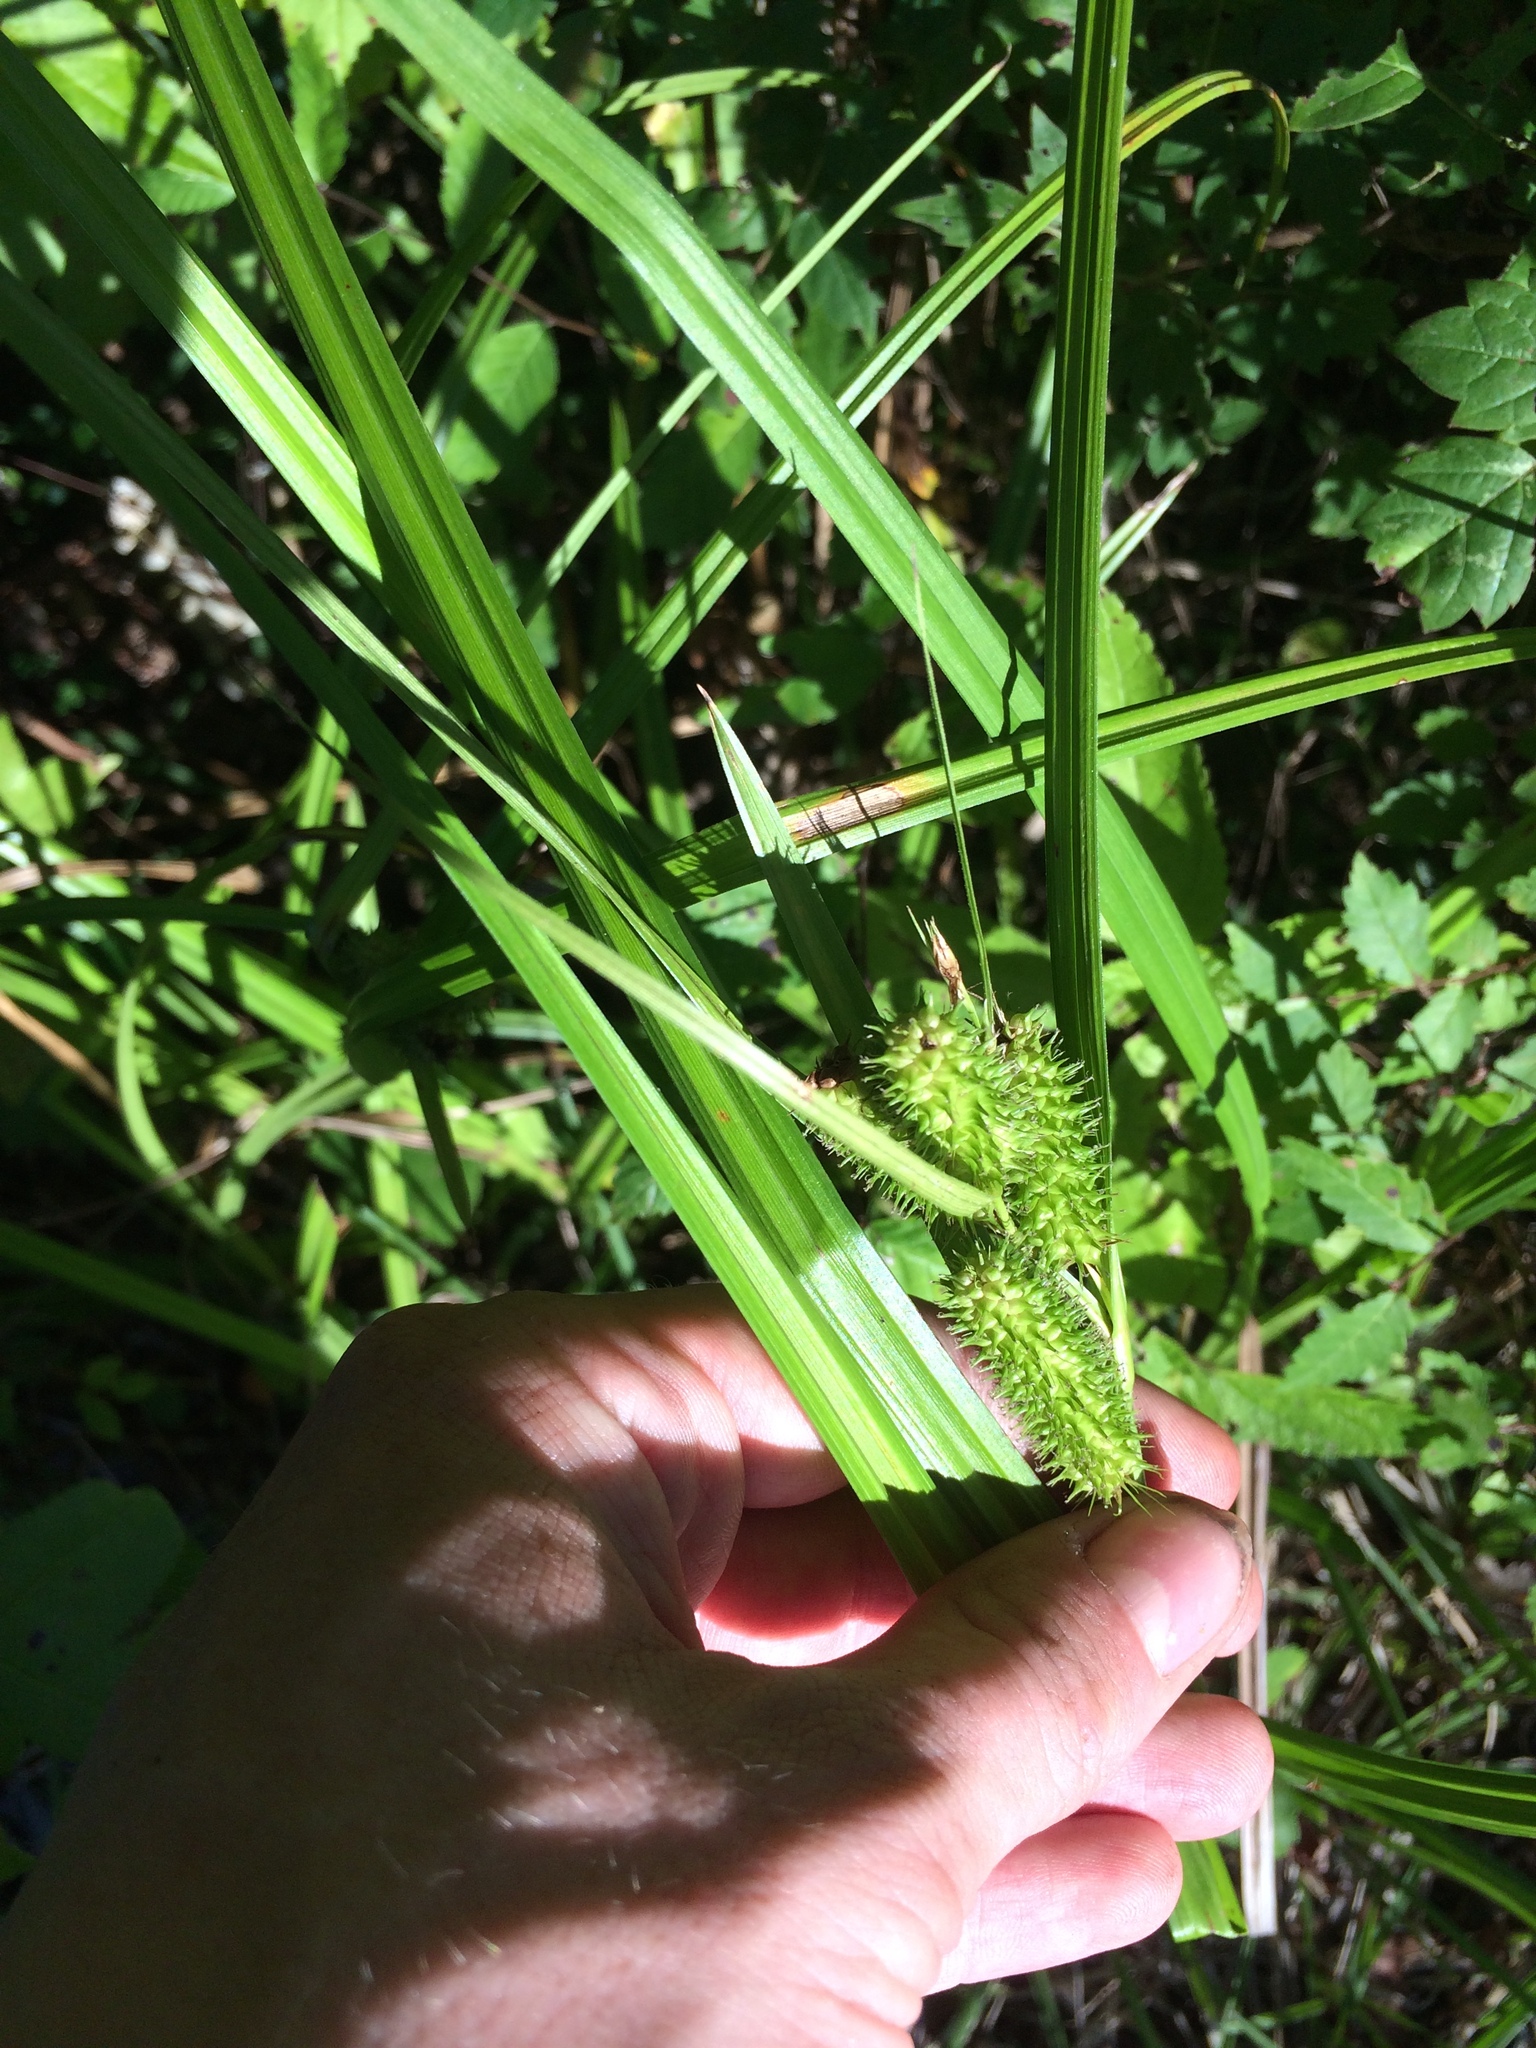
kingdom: Plantae
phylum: Tracheophyta
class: Liliopsida
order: Poales
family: Cyperaceae
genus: Carex
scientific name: Carex aureolensis
